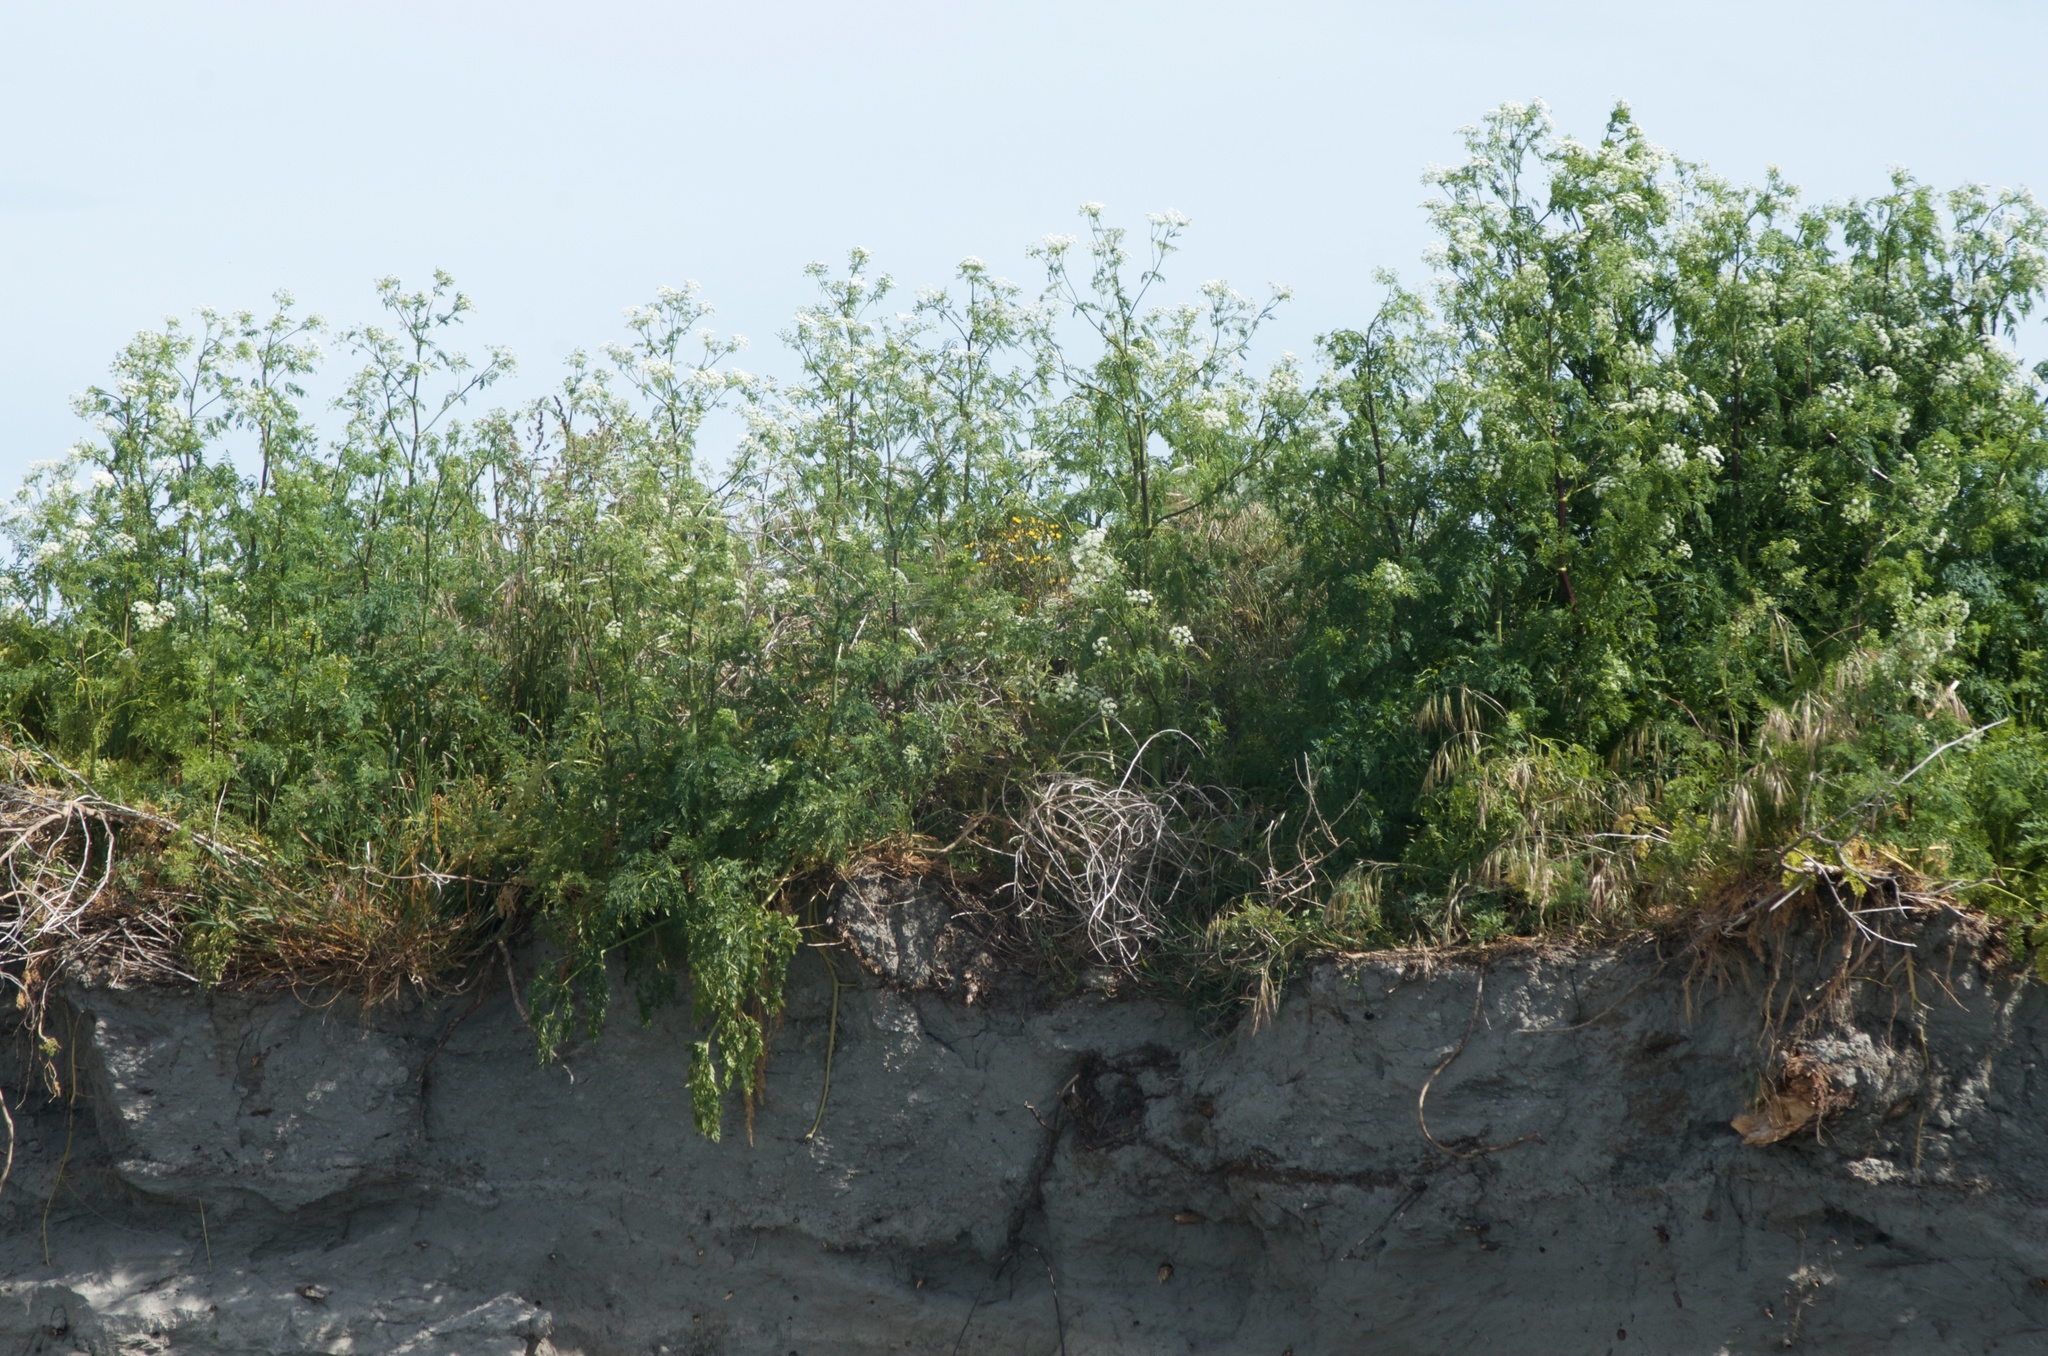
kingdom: Plantae
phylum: Tracheophyta
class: Magnoliopsida
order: Apiales
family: Apiaceae
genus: Conium
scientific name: Conium maculatum
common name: Hemlock
